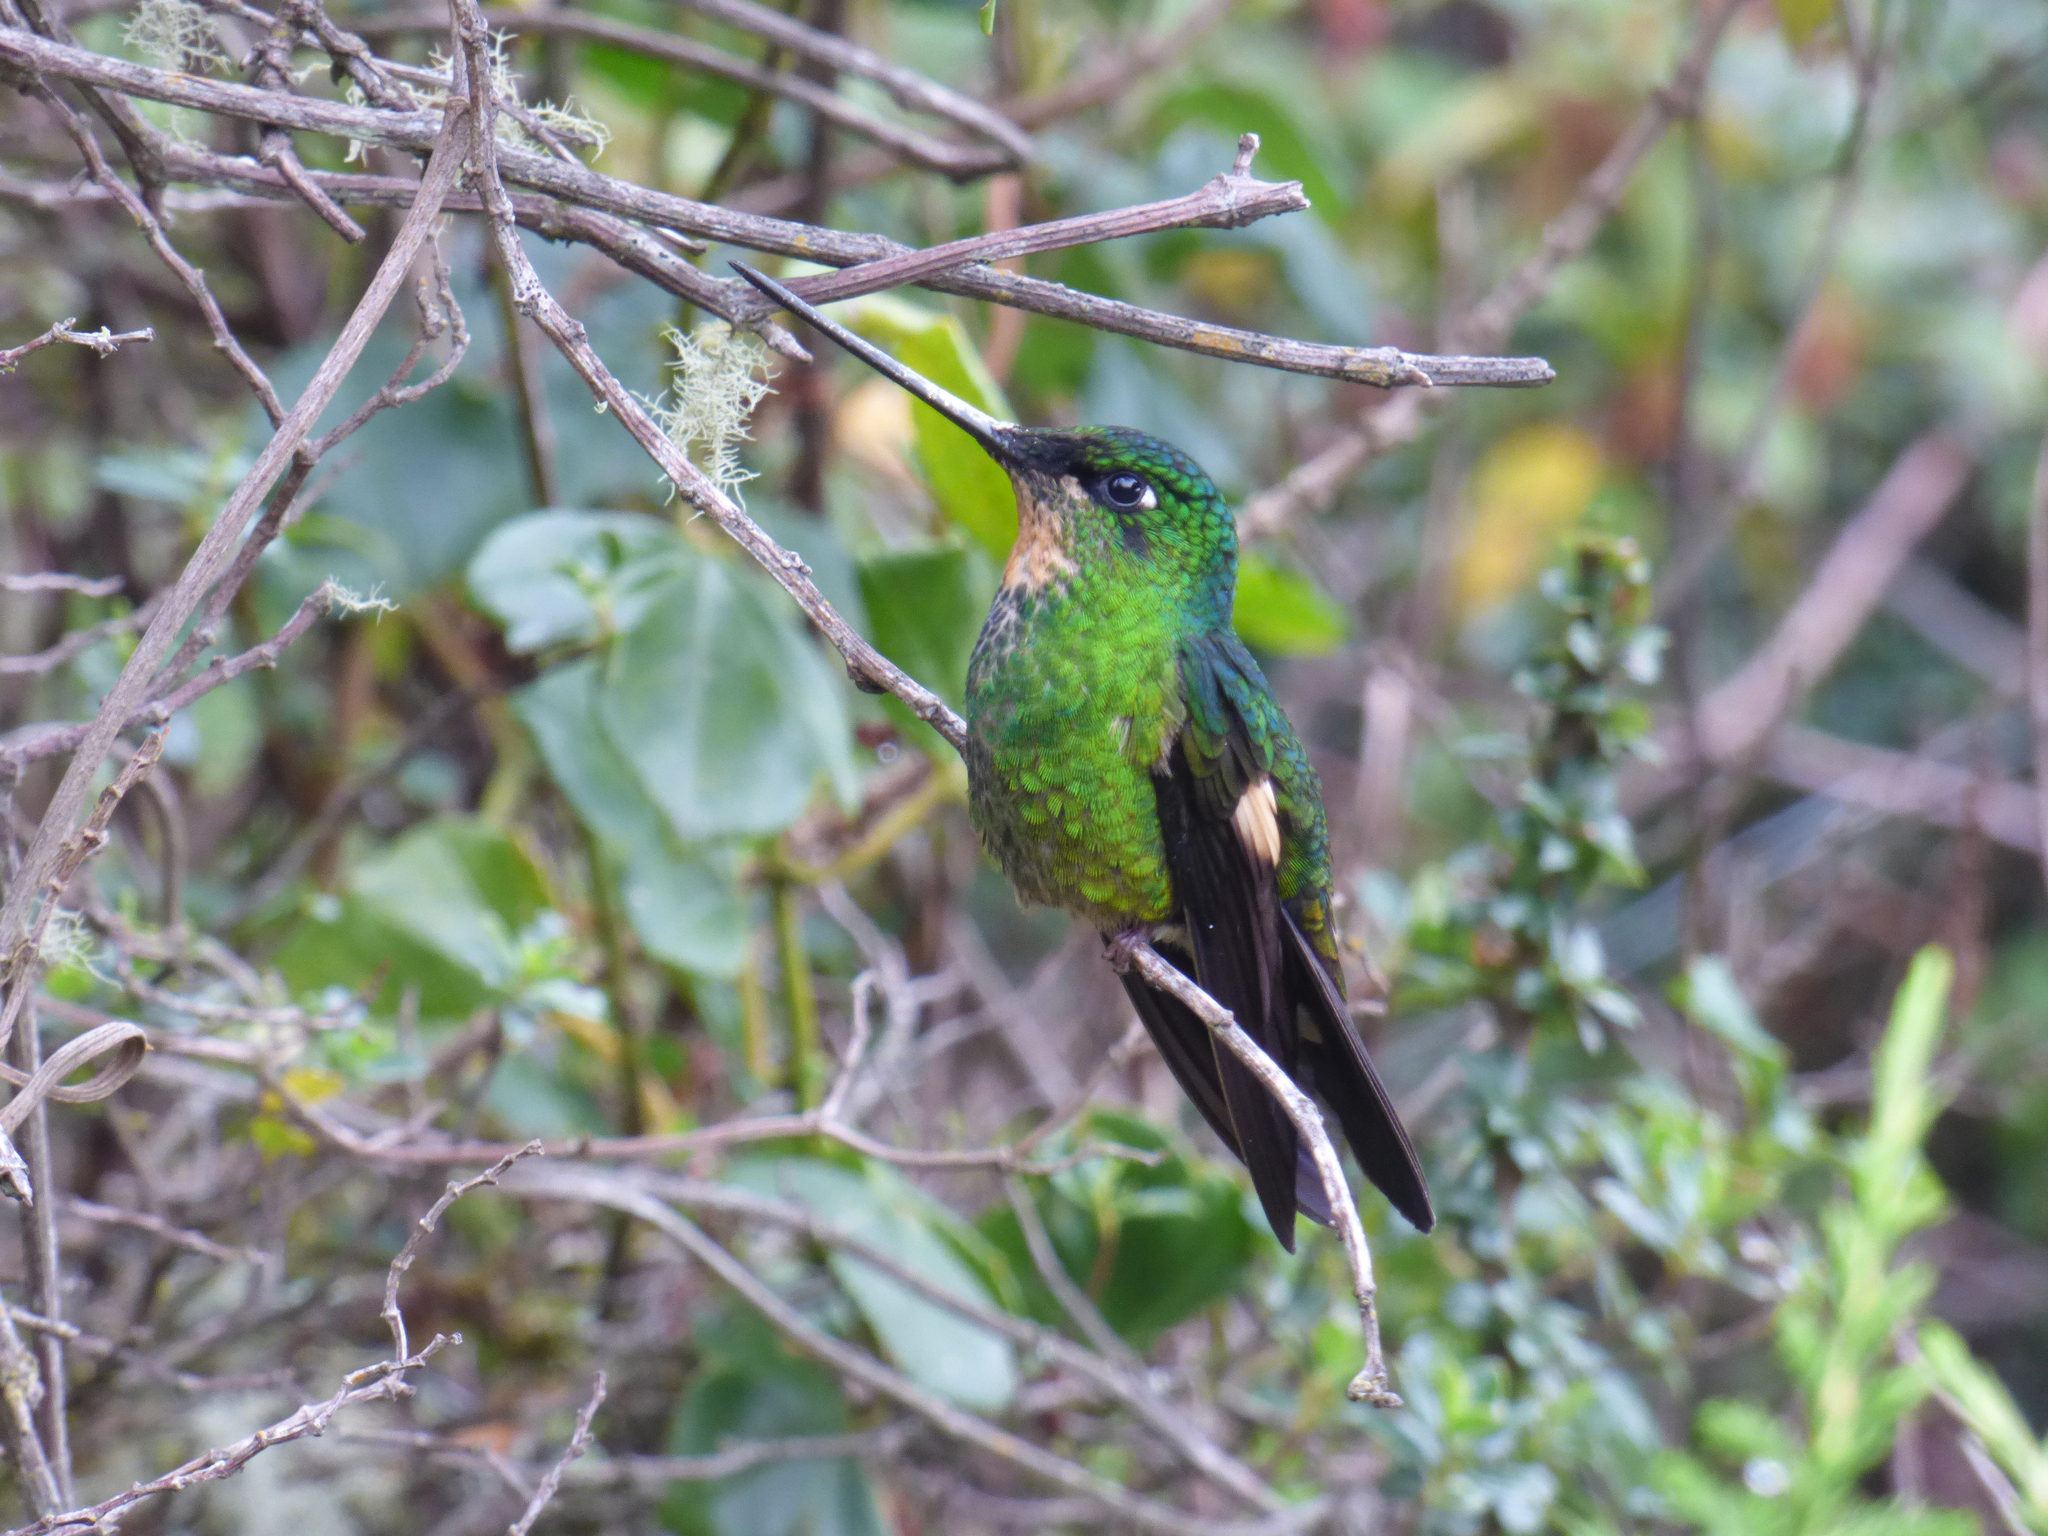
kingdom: Animalia
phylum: Chordata
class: Aves
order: Apodiformes
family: Trochilidae
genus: Coeligena
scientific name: Coeligena lutetiae
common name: Buff-winged starfrontlet
